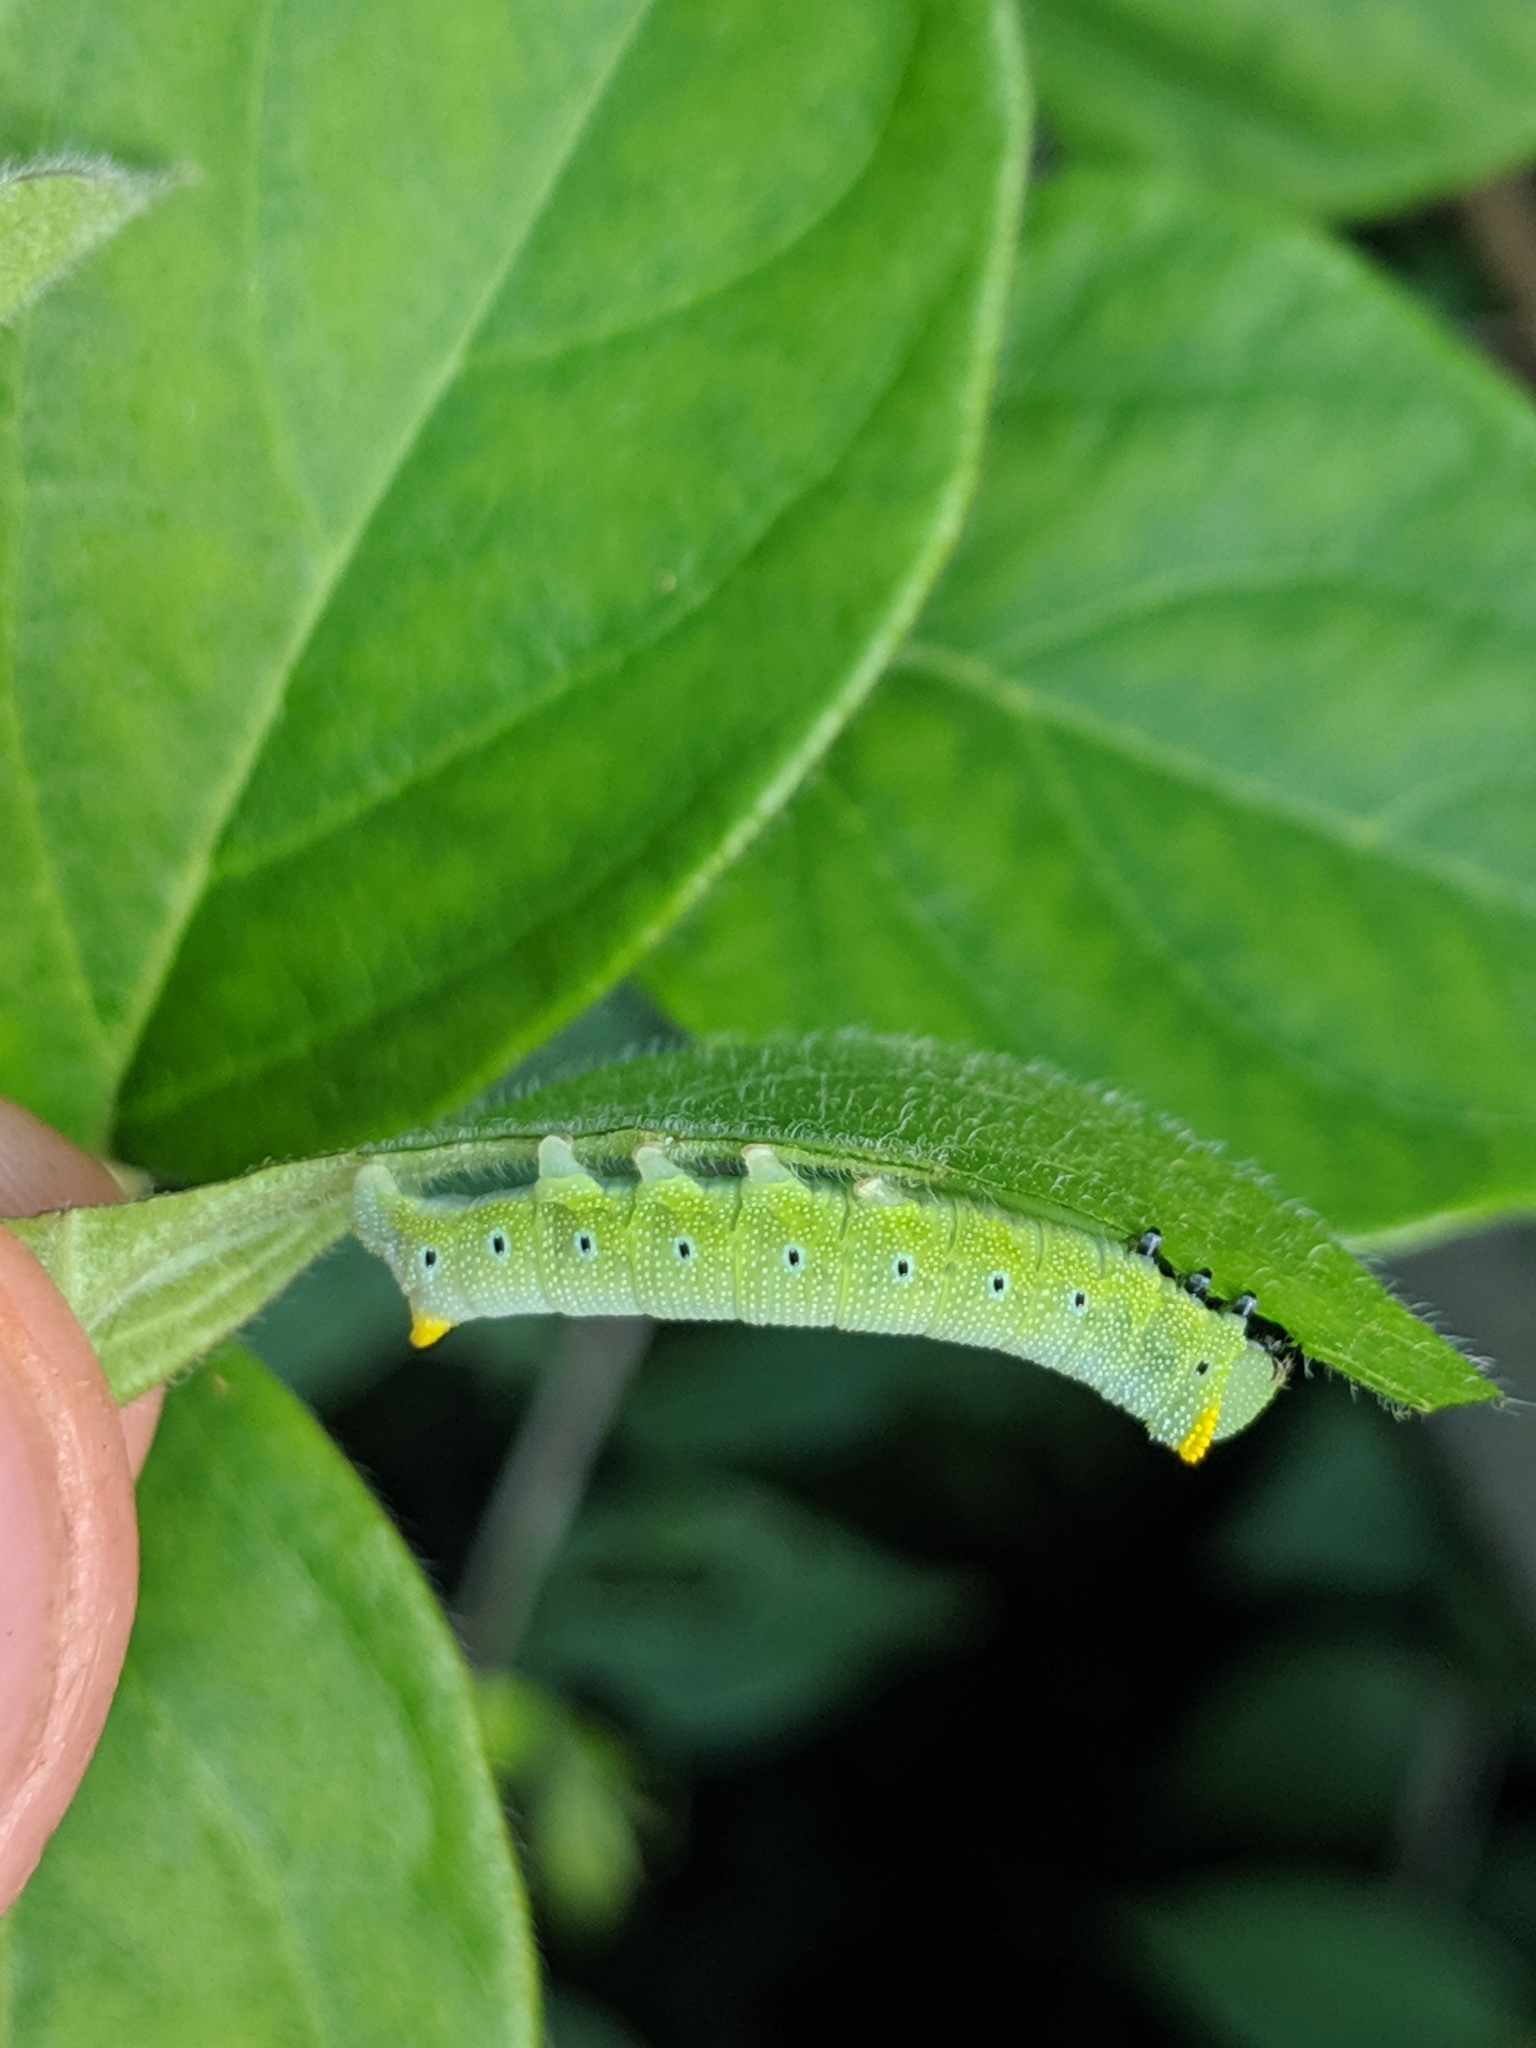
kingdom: Animalia
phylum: Arthropoda
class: Insecta
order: Lepidoptera
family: Sphingidae
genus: Hemaris
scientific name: Hemaris diffinis
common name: Bumblebee moth
